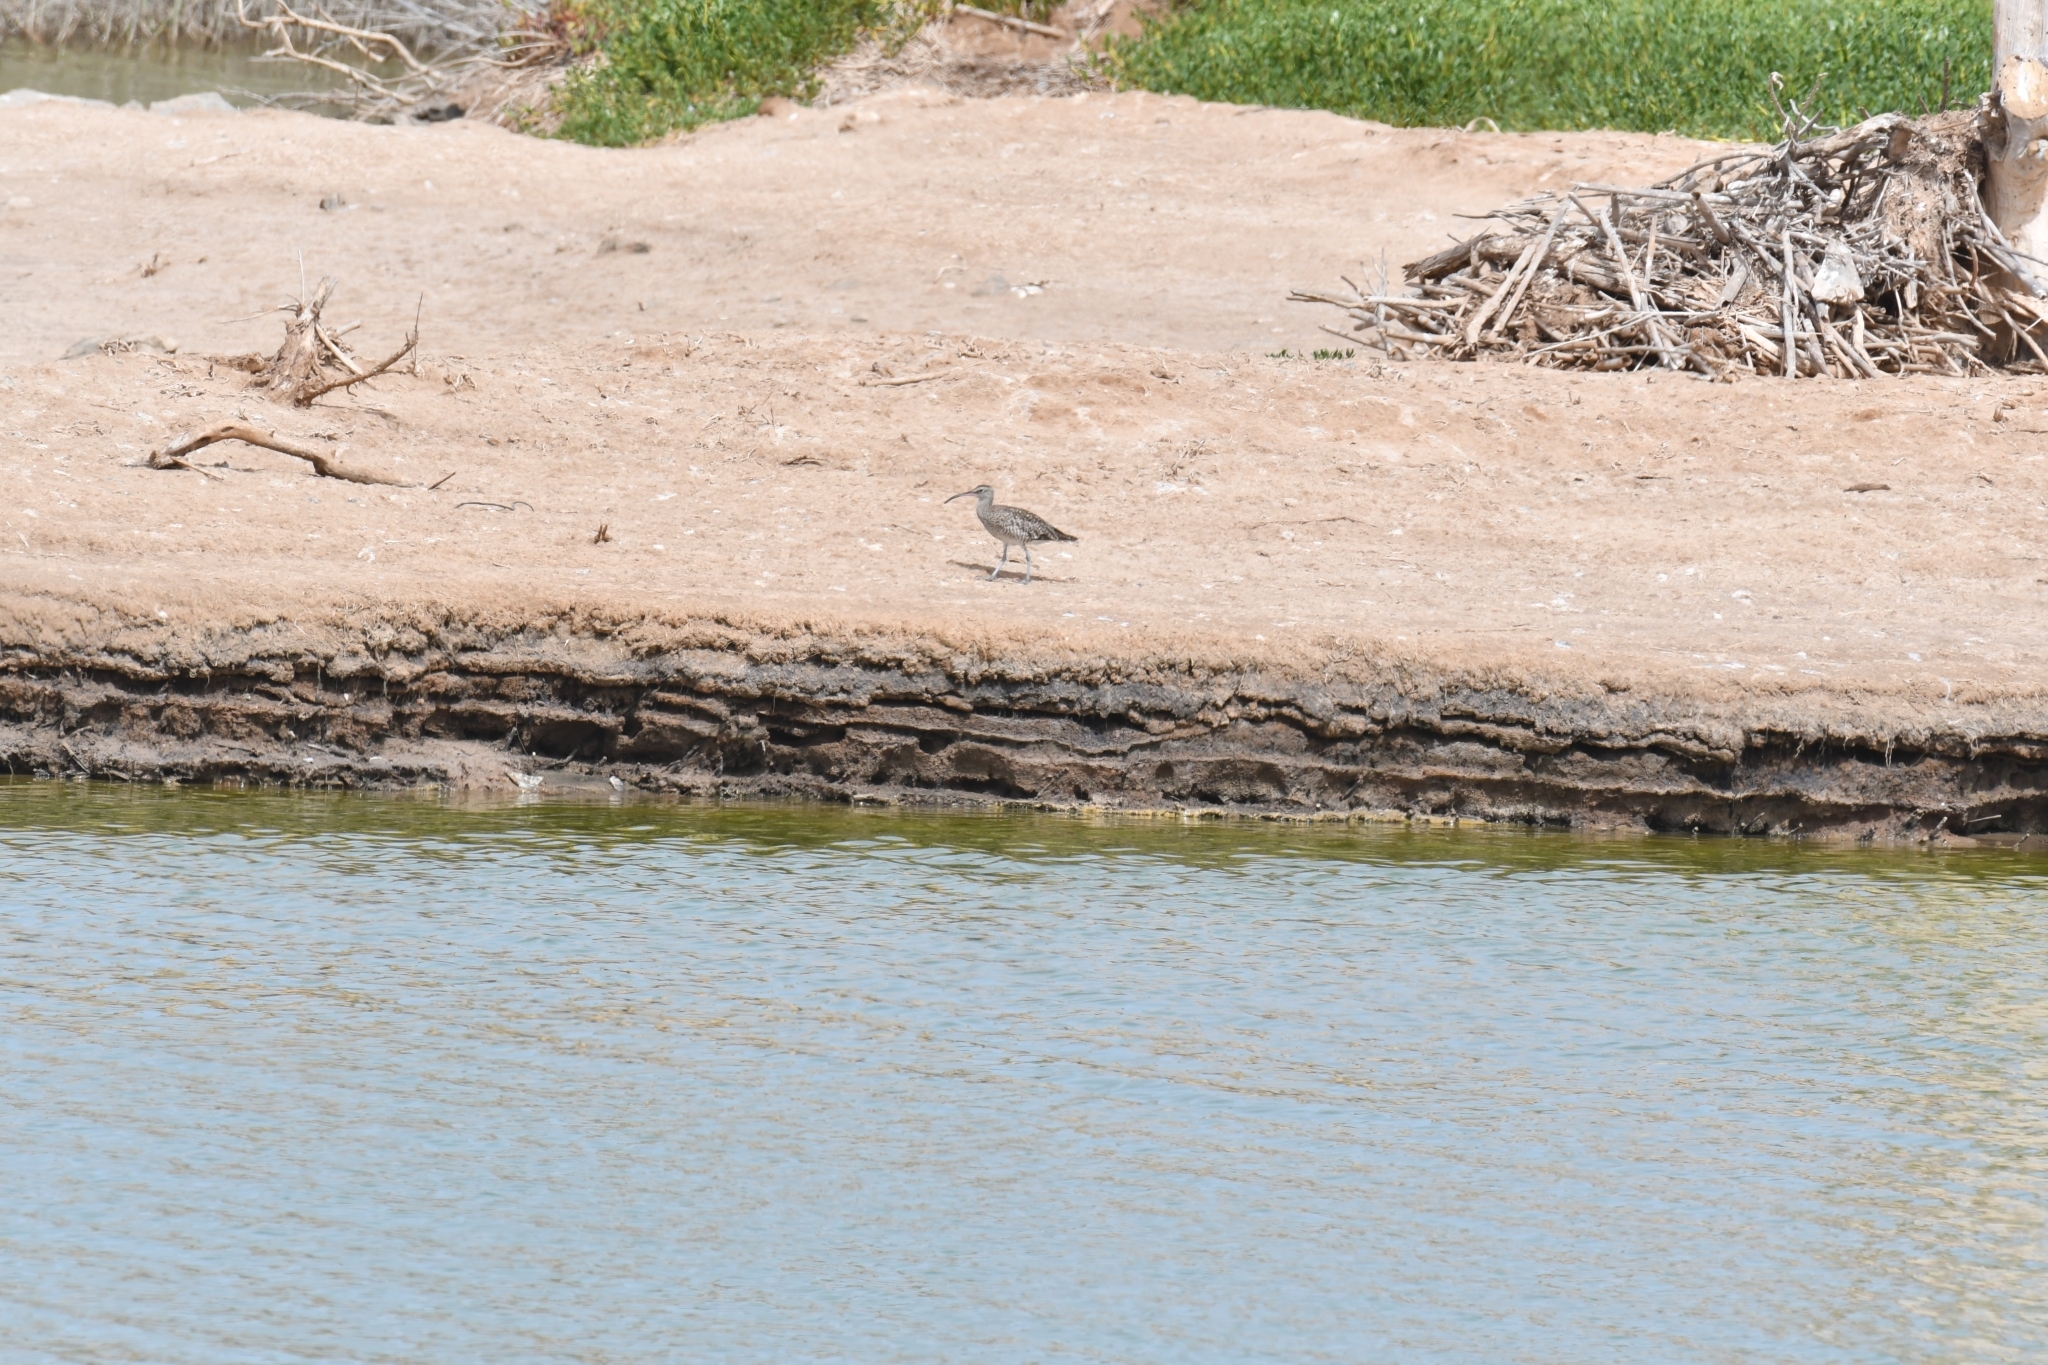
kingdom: Animalia
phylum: Chordata
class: Aves
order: Charadriiformes
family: Scolopacidae
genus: Numenius
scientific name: Numenius phaeopus
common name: Whimbrel
